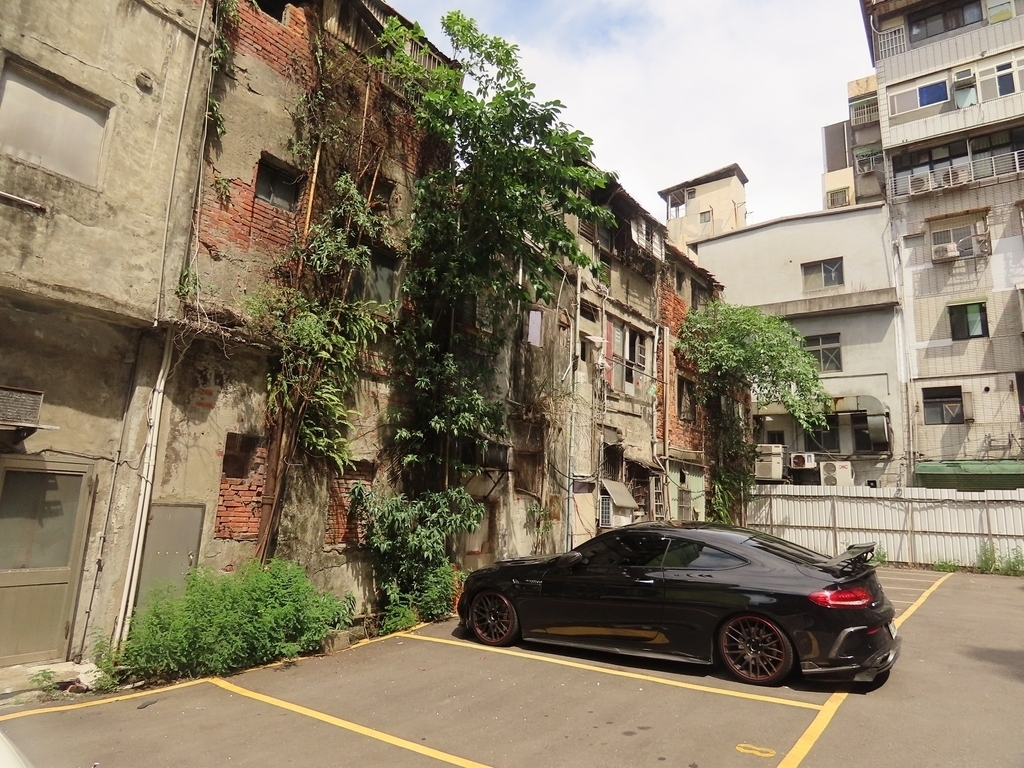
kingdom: Plantae
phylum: Tracheophyta
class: Polypodiopsida
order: Polypodiales
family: Nephrolepidaceae
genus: Nephrolepis
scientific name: Nephrolepis cordifolia
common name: Narrow swordfern
